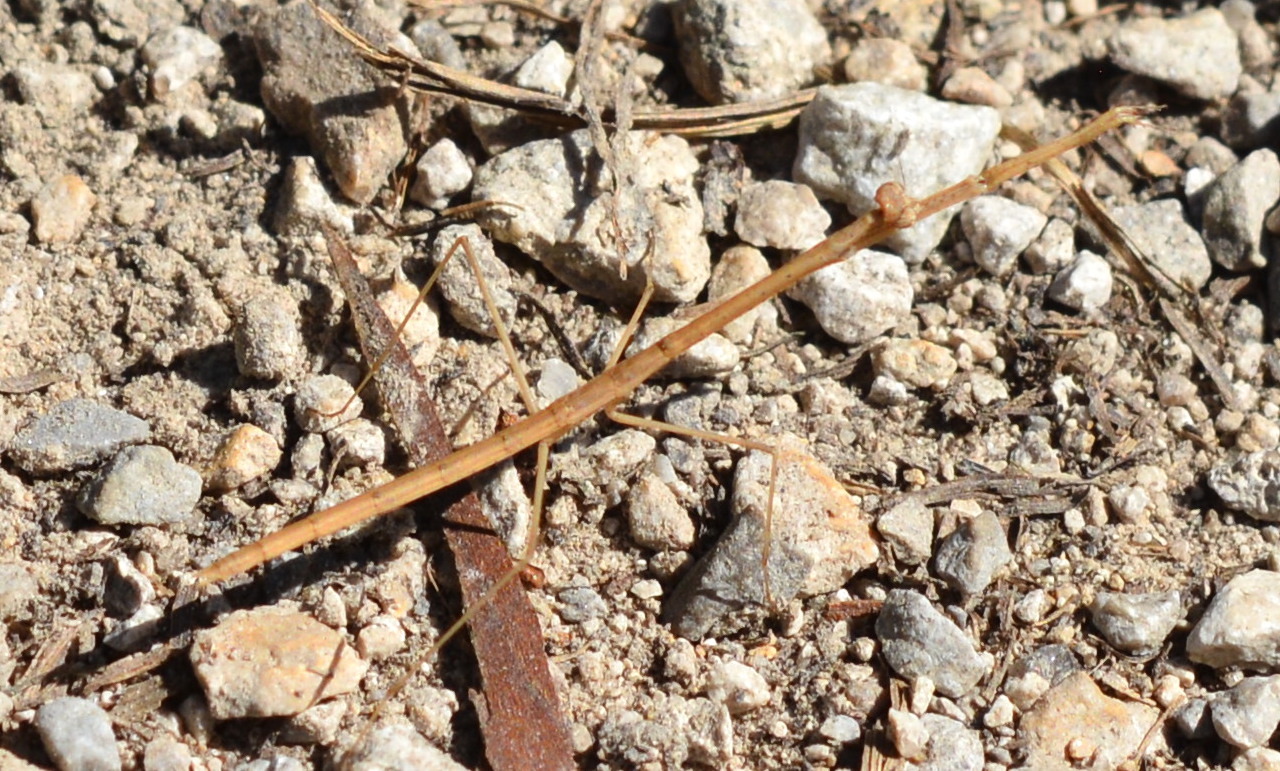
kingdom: Animalia
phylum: Arthropoda
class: Insecta
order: Mantodea
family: Thespidae
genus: Thesprotia
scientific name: Thesprotia graminis
